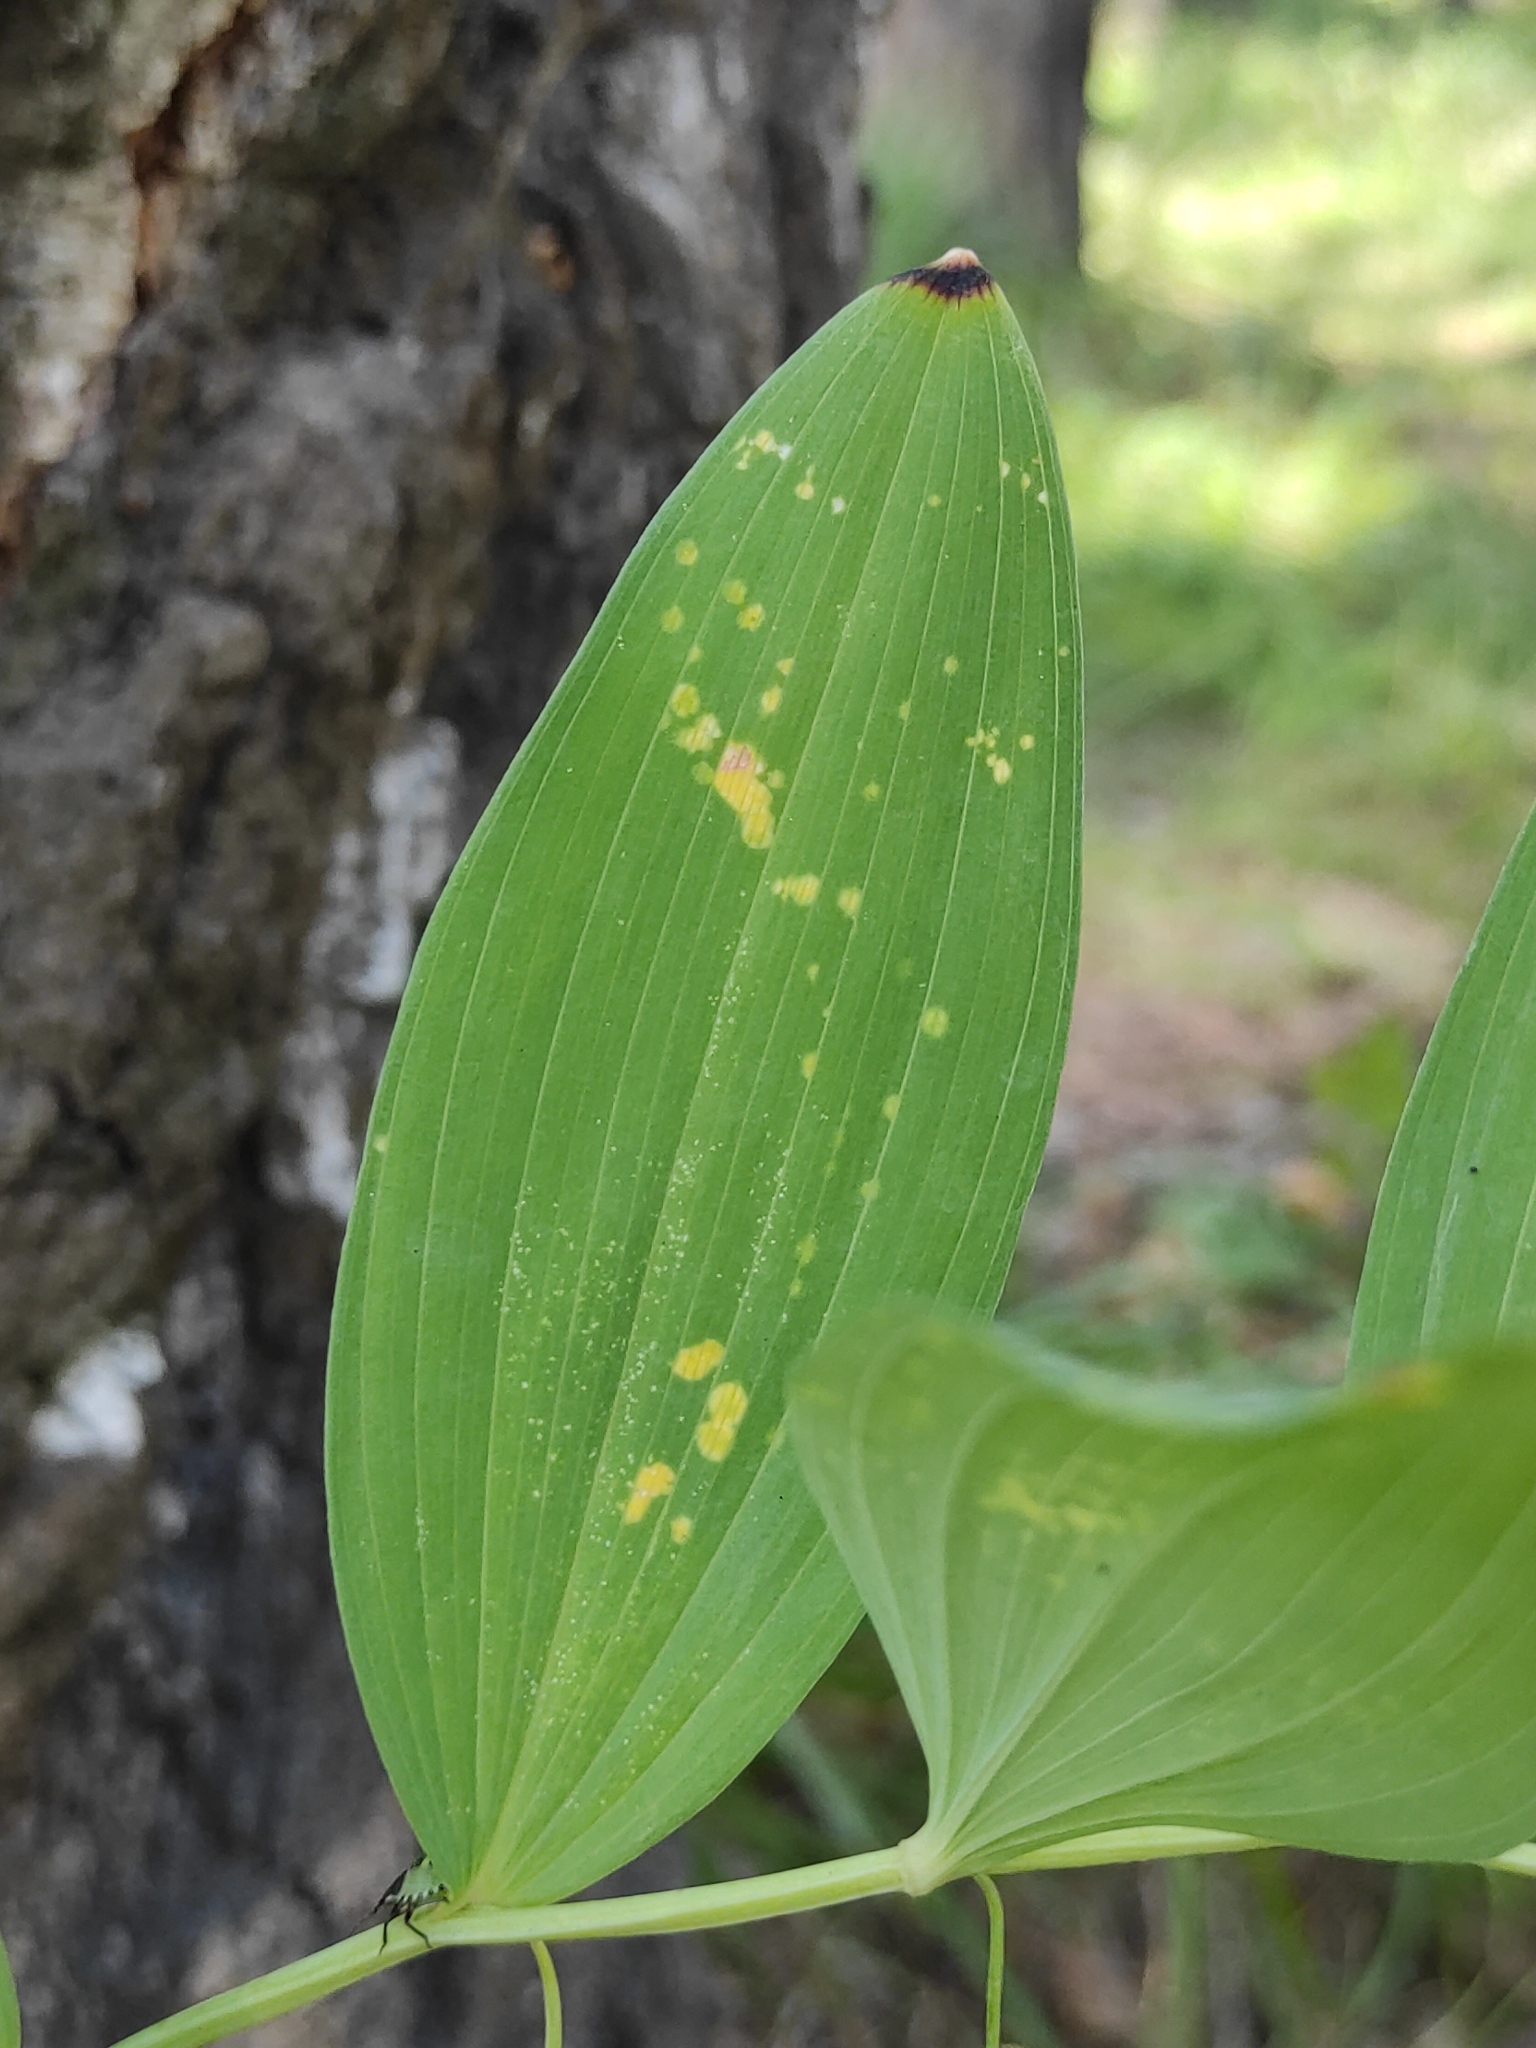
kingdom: Plantae
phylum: Tracheophyta
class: Liliopsida
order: Asparagales
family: Asparagaceae
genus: Polygonatum
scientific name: Polygonatum odoratum
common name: Angular solomon's-seal
